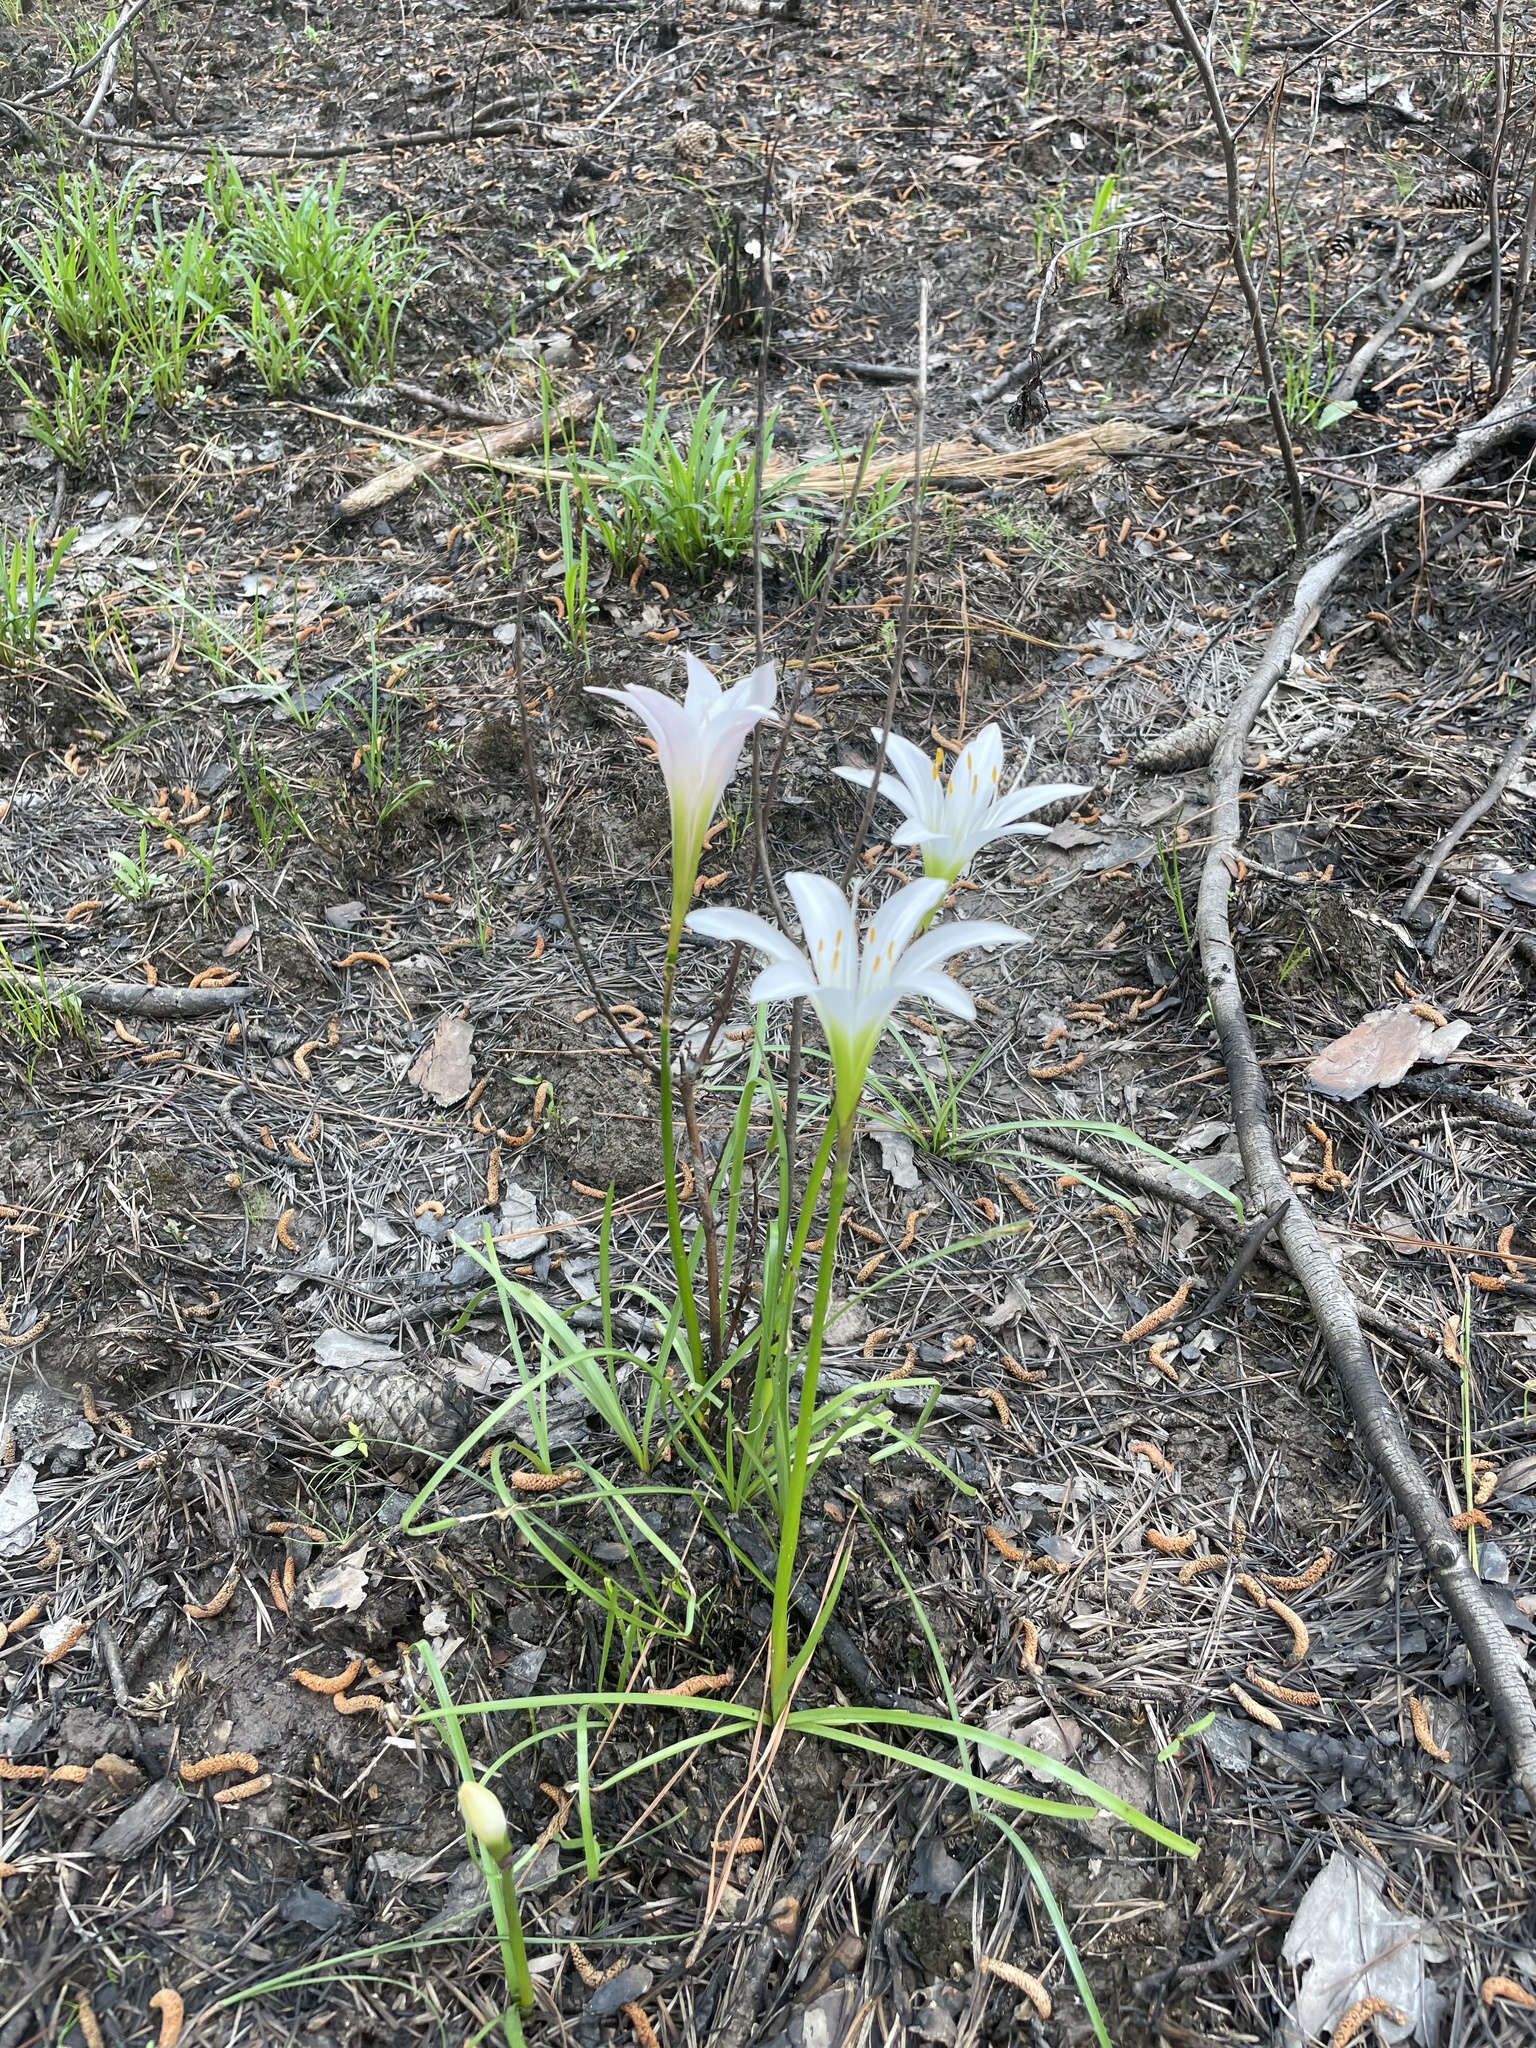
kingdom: Plantae
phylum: Tracheophyta
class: Liliopsida
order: Asparagales
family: Amaryllidaceae
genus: Zephyranthes
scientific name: Zephyranthes atamasco
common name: Atamasco lily
